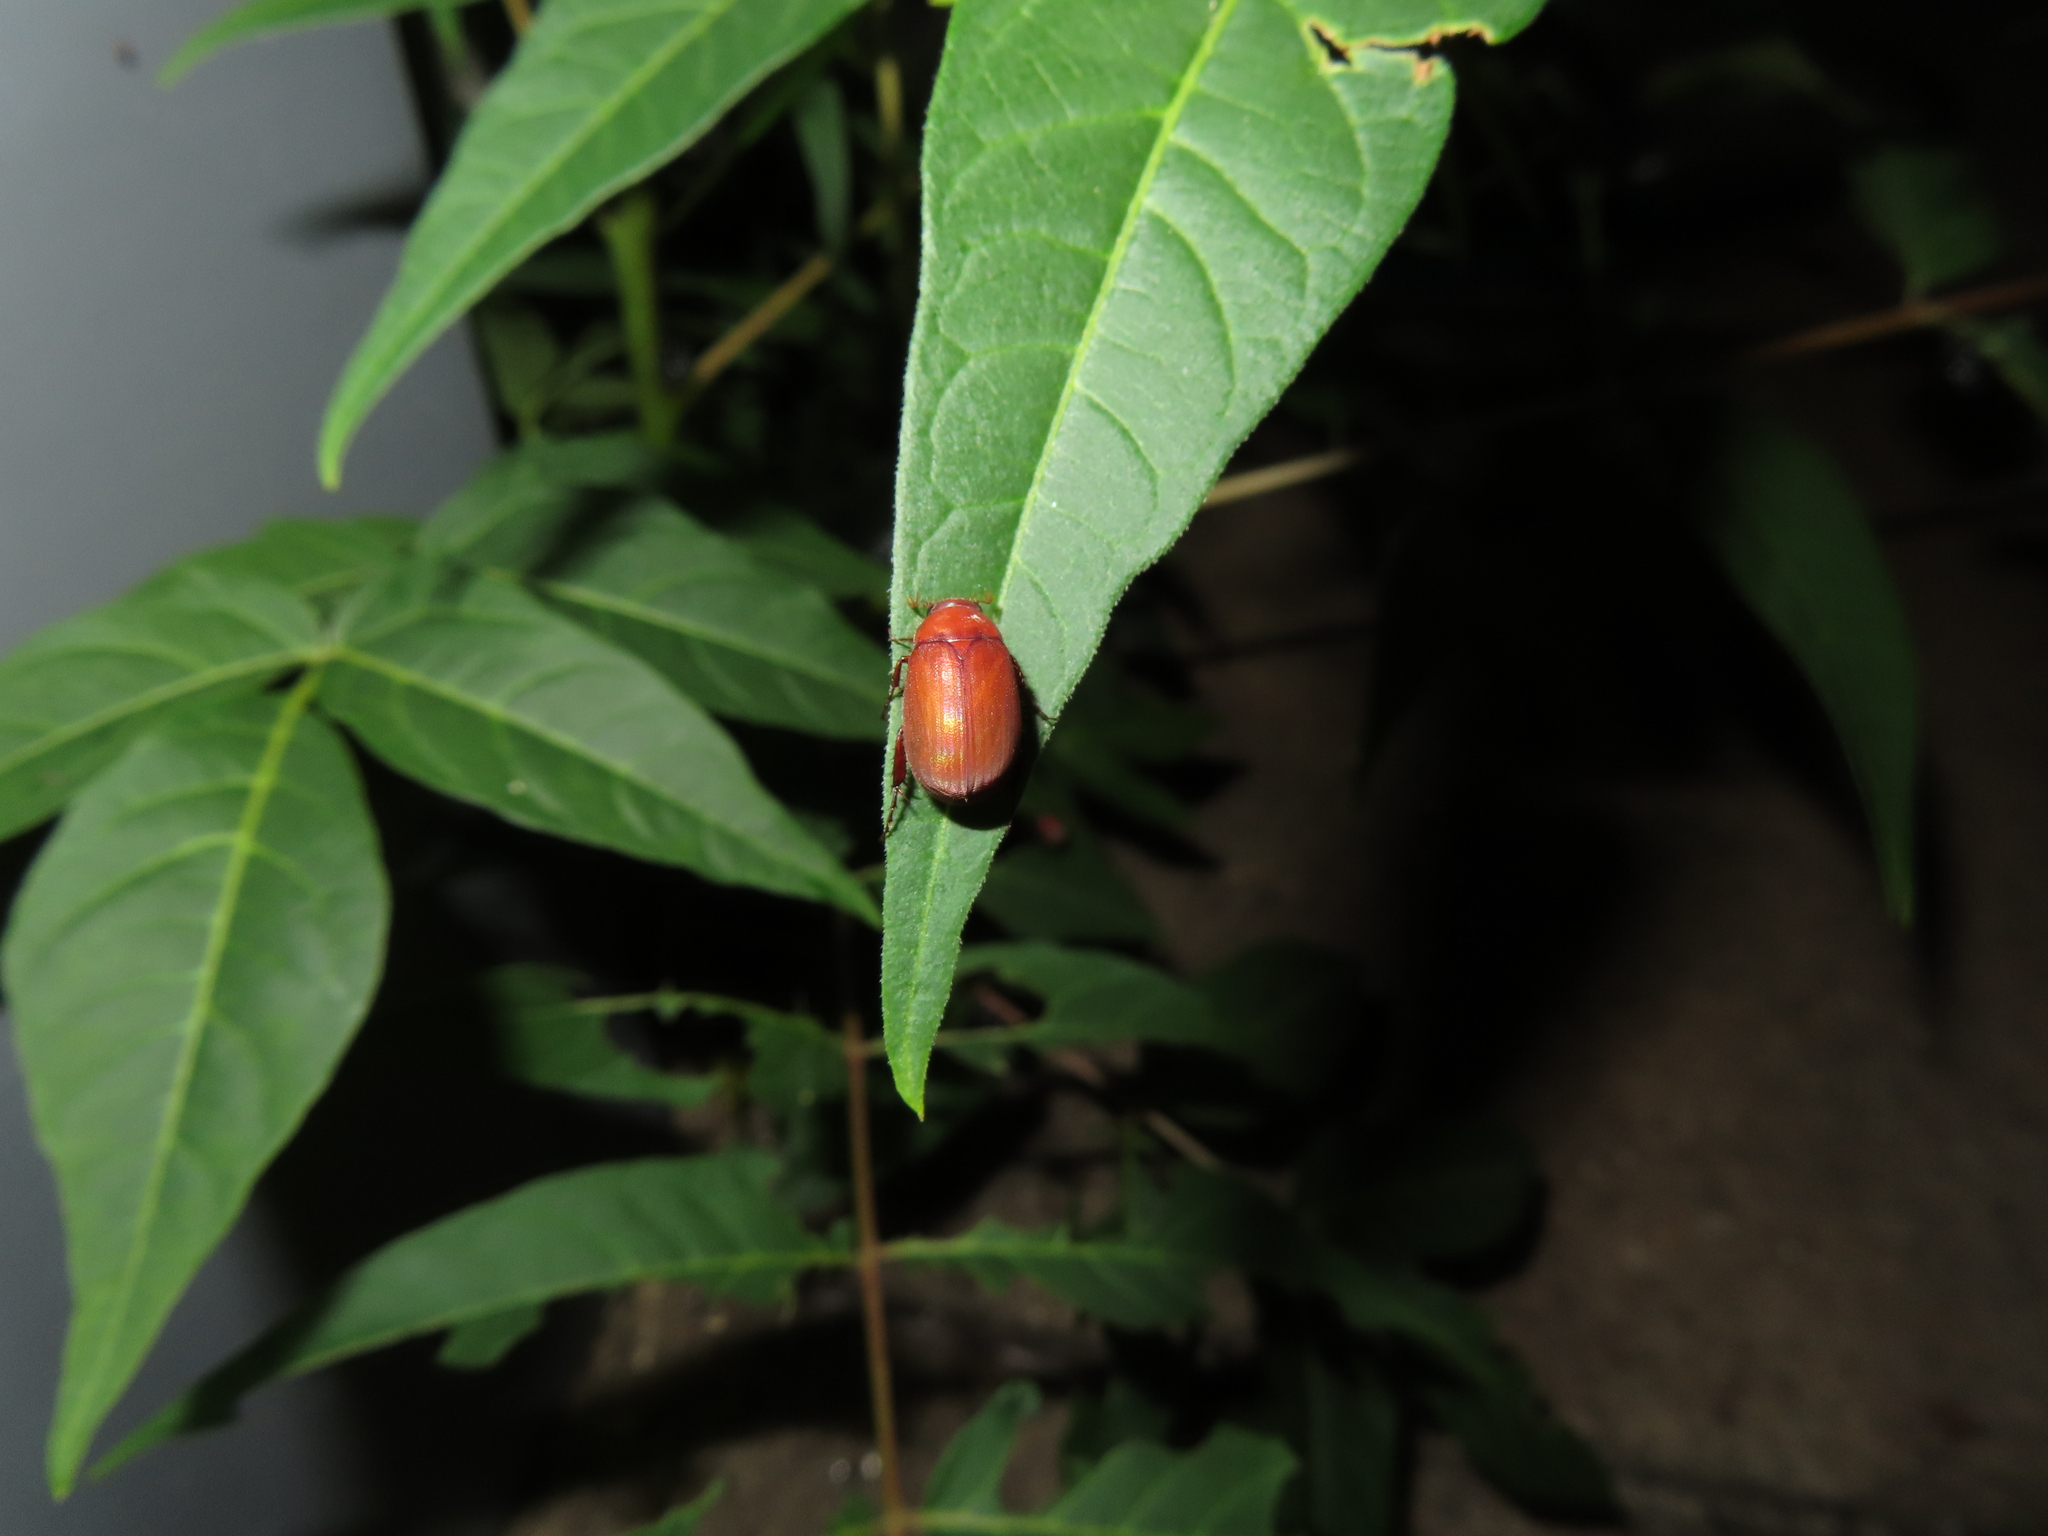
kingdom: Animalia
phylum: Arthropoda
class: Insecta
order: Coleoptera
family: Scarabaeidae
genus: Maladera
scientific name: Maladera formosae
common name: Asiatic garden beetle
